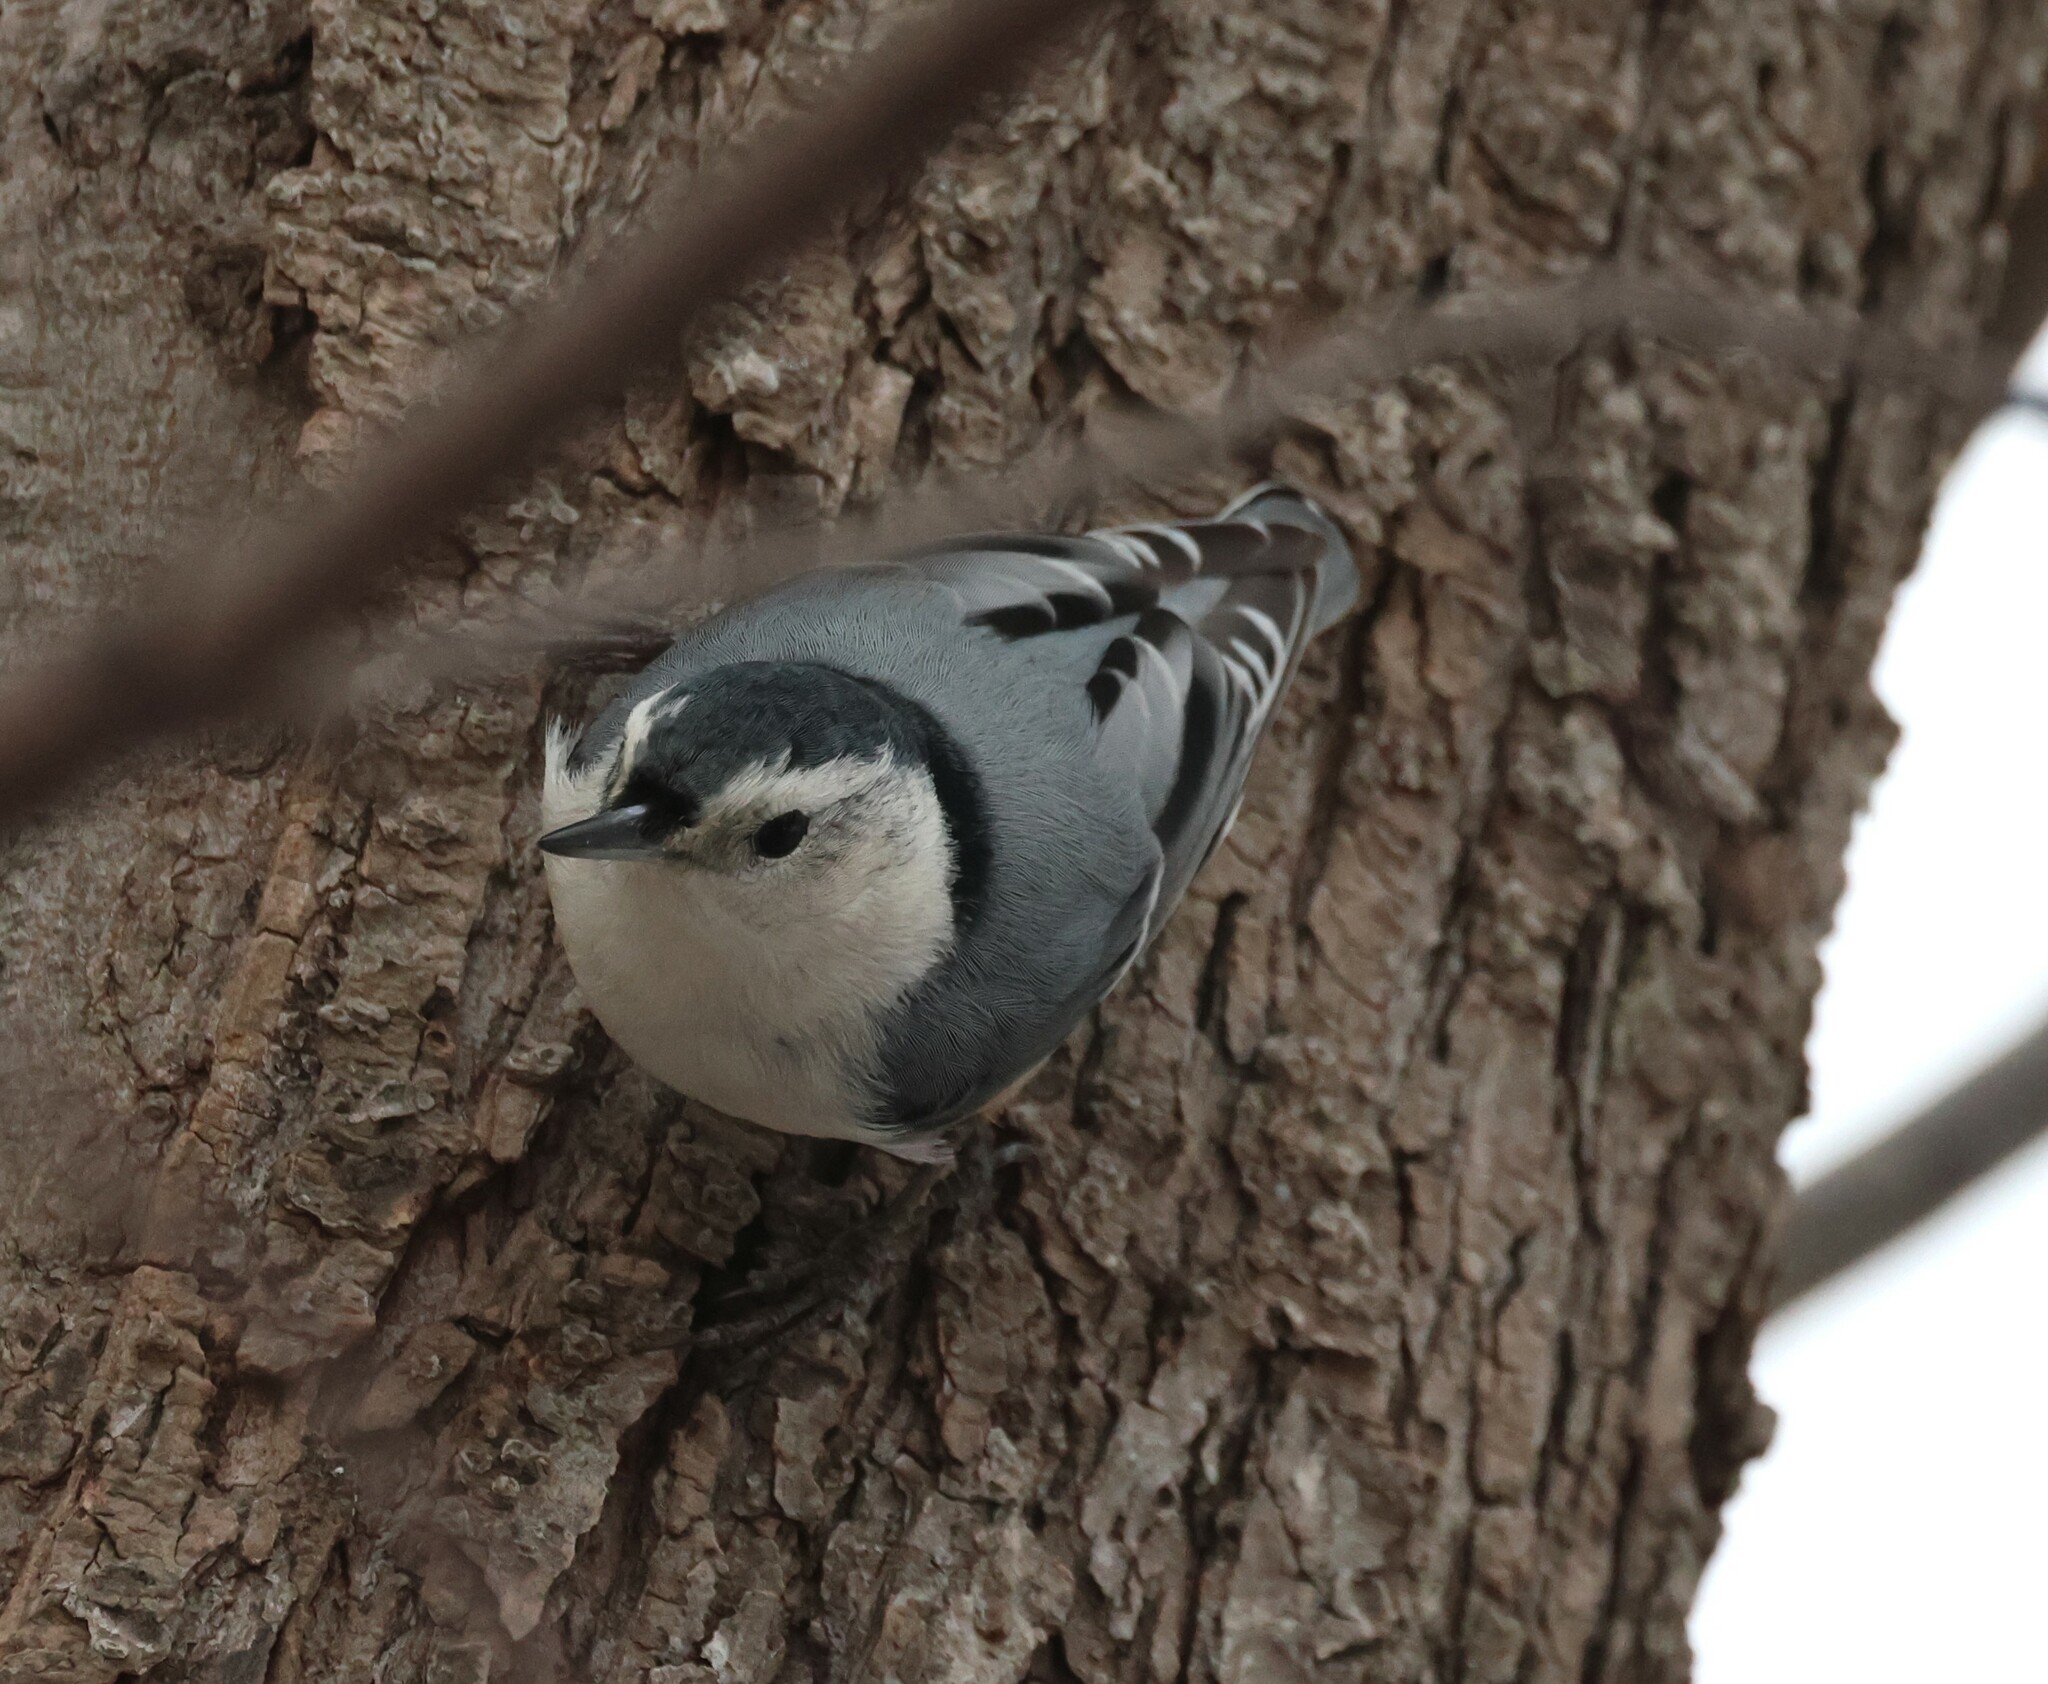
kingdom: Animalia
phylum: Chordata
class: Aves
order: Passeriformes
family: Sittidae
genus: Sitta
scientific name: Sitta carolinensis
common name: White-breasted nuthatch
